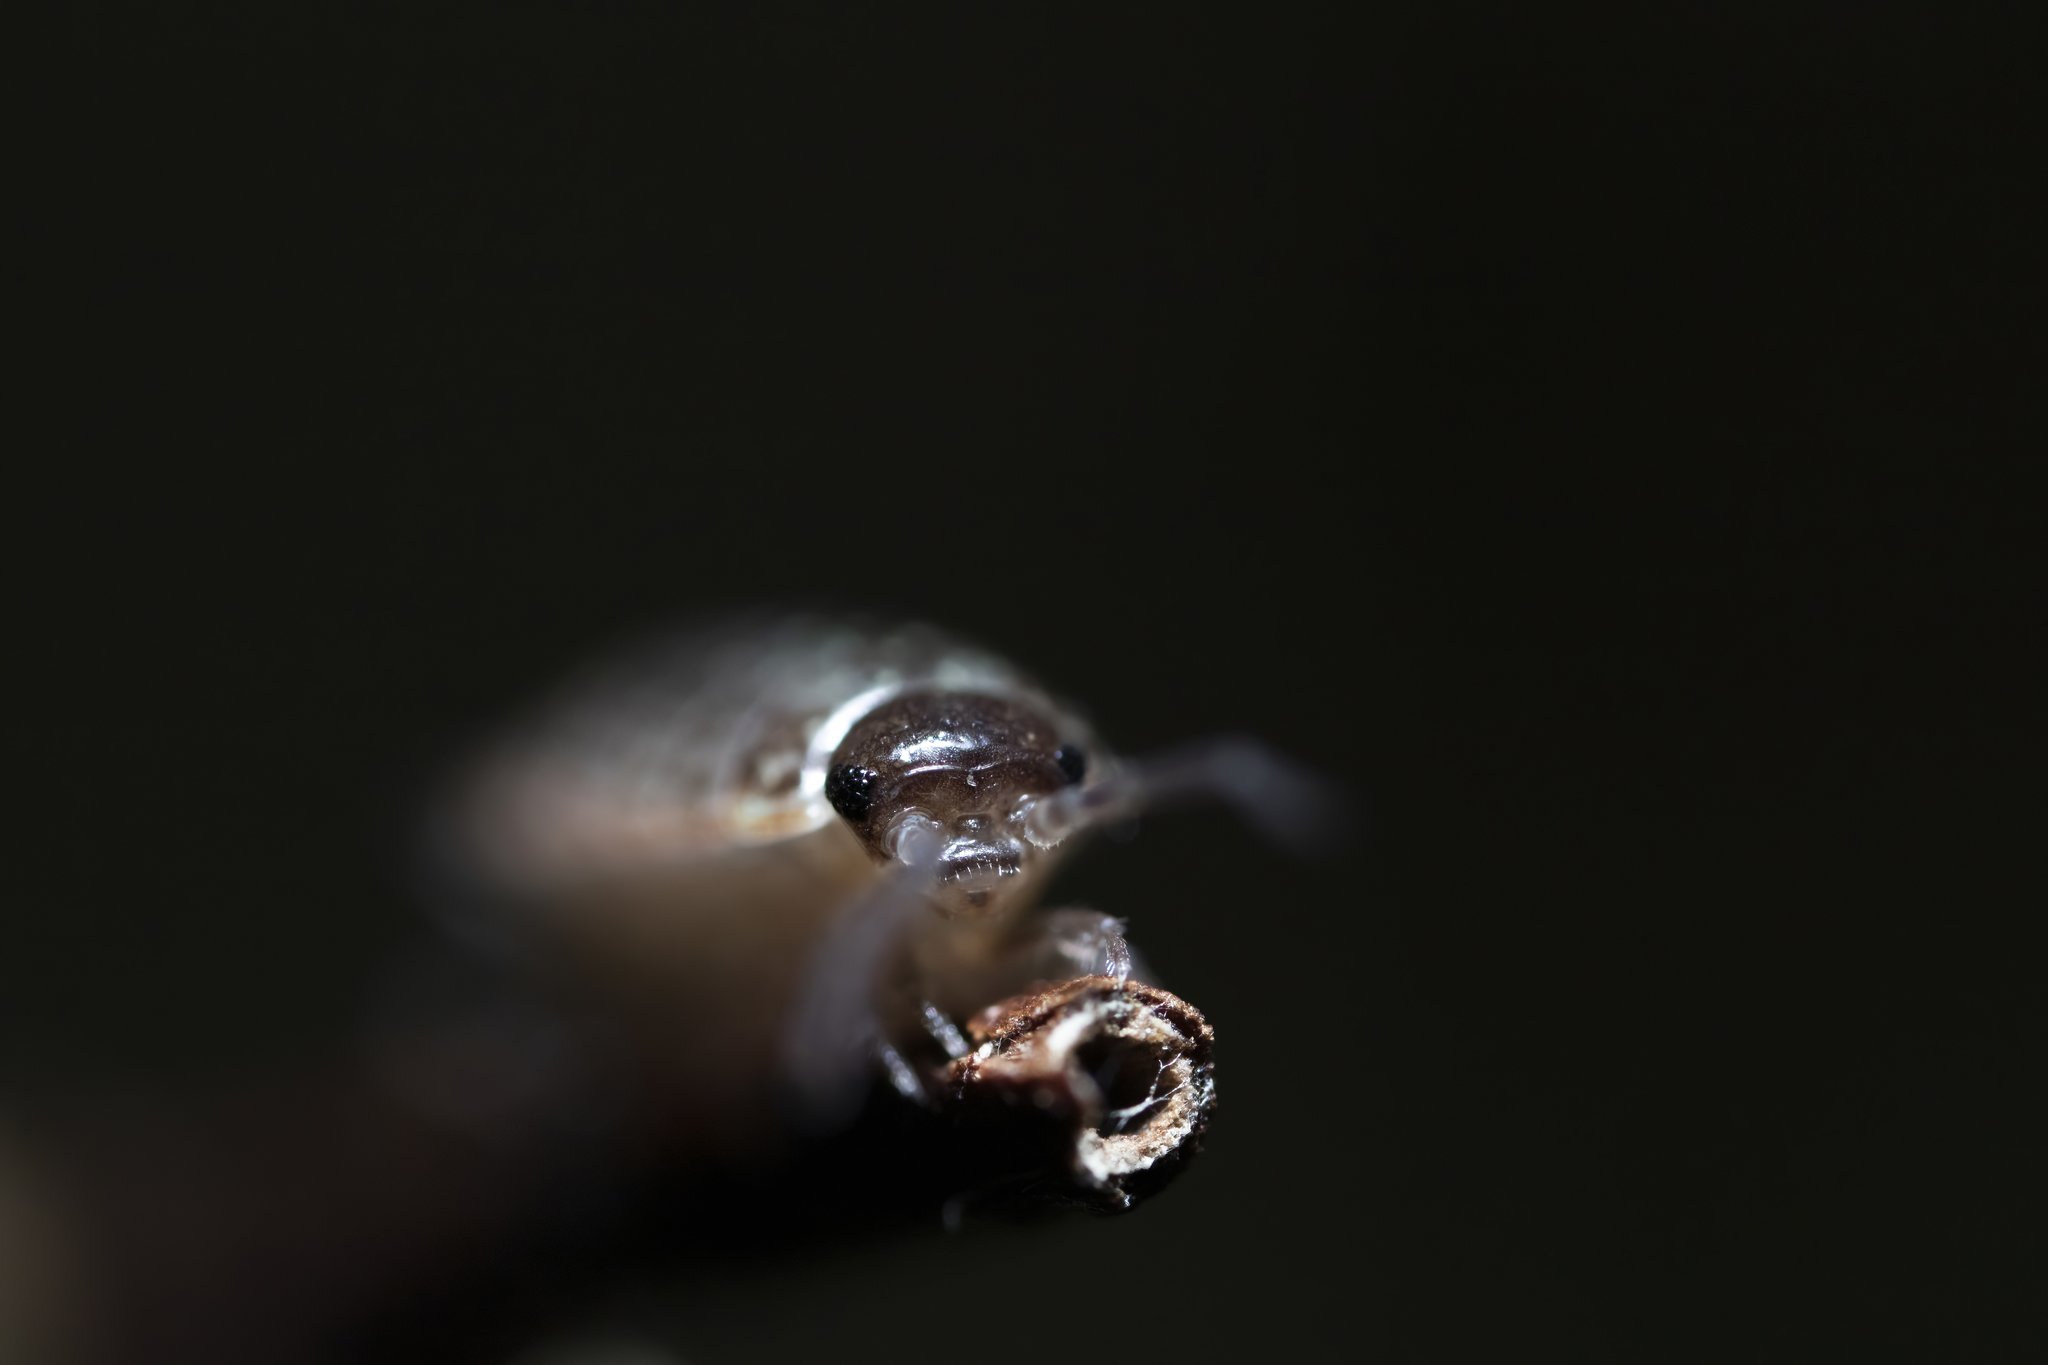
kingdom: Animalia
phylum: Arthropoda
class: Malacostraca
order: Isopoda
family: Philosciidae
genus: Philoscia
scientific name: Philoscia muscorum
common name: Common striped woodlouse
